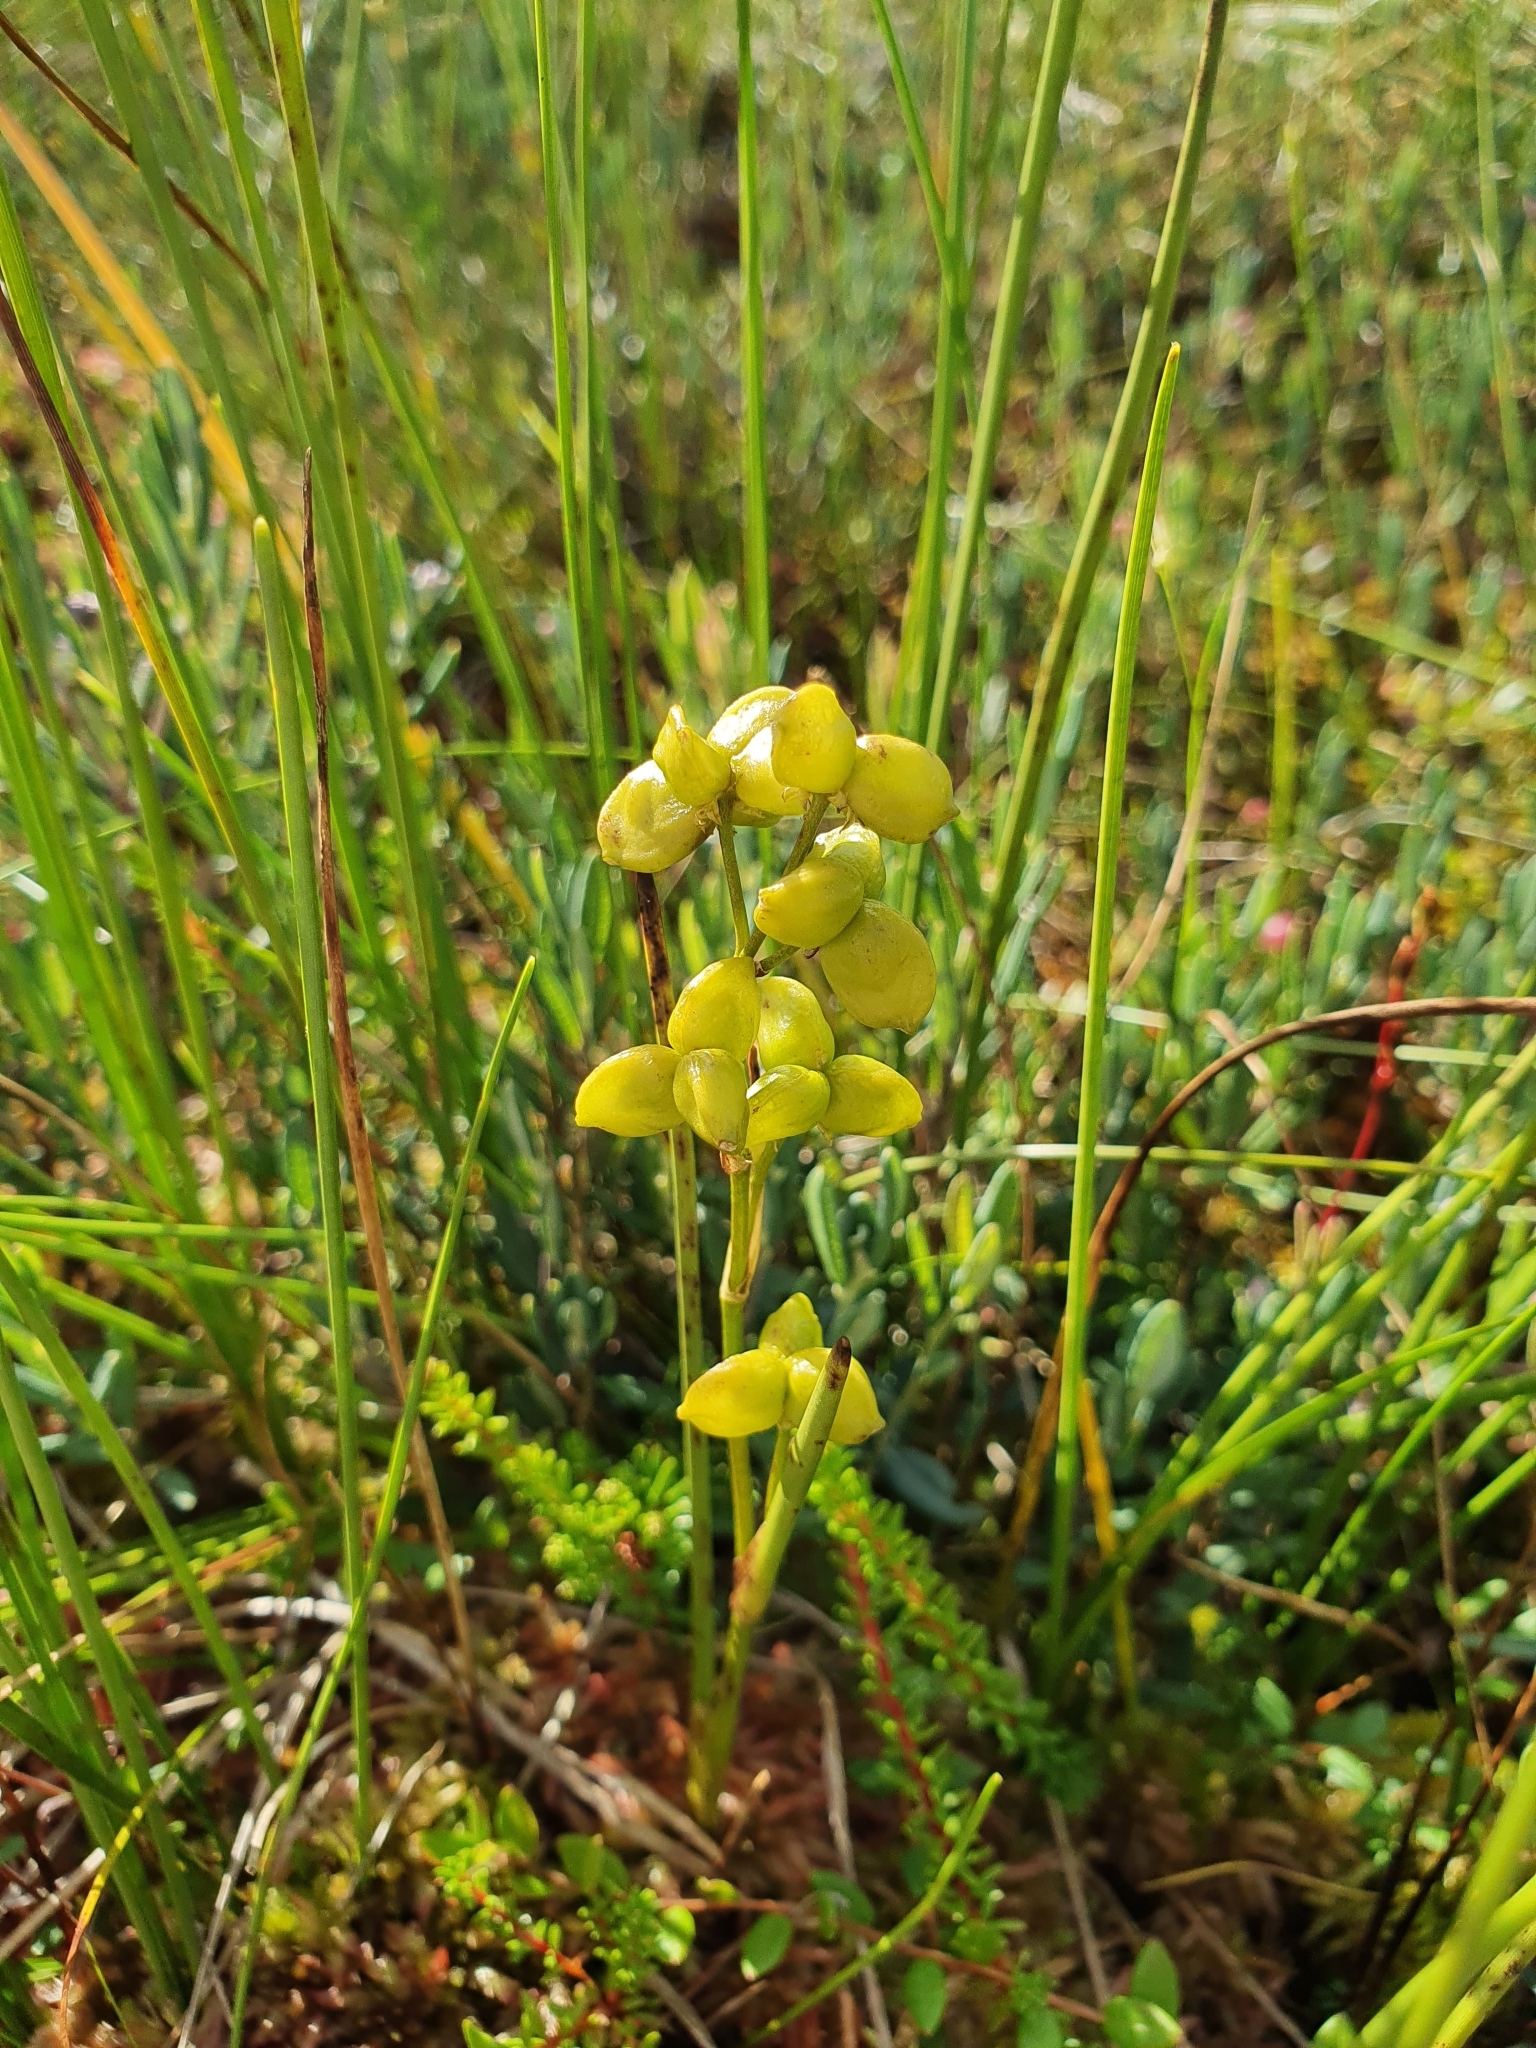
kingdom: Plantae
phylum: Tracheophyta
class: Liliopsida
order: Alismatales
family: Scheuchzeriaceae
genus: Scheuchzeria
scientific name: Scheuchzeria palustris
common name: Rannoch-rush
